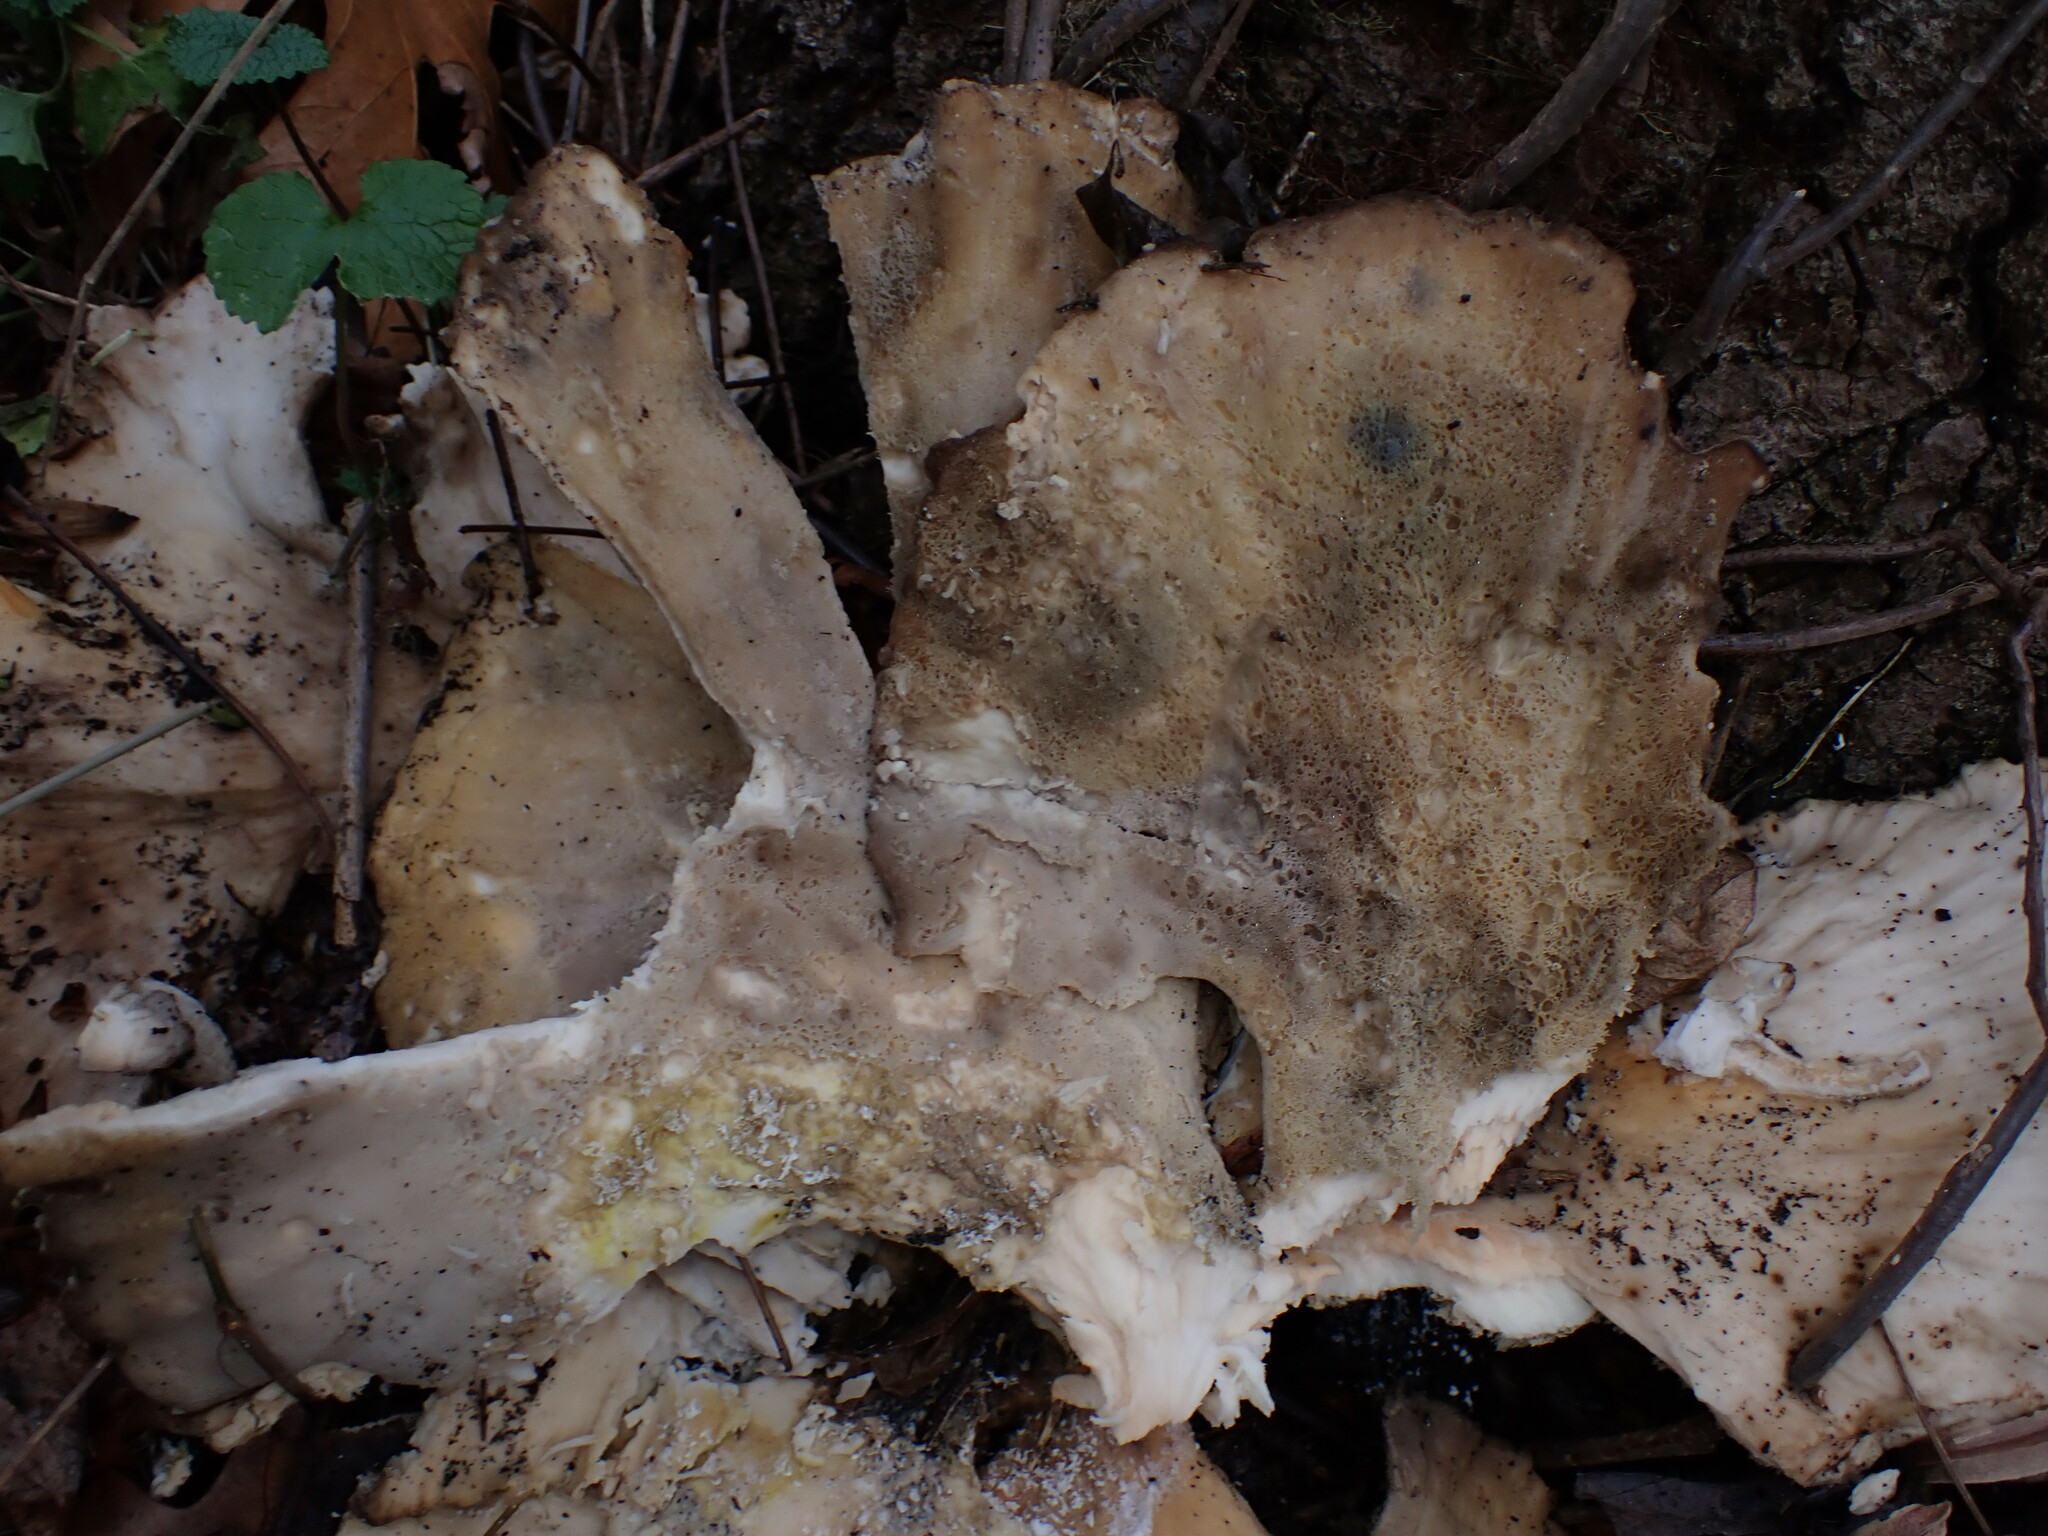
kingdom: Fungi
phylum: Basidiomycota
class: Agaricomycetes
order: Polyporales
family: Laetiporaceae
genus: Laetiporus
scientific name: Laetiporus sulphureus
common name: Chicken of the woods
